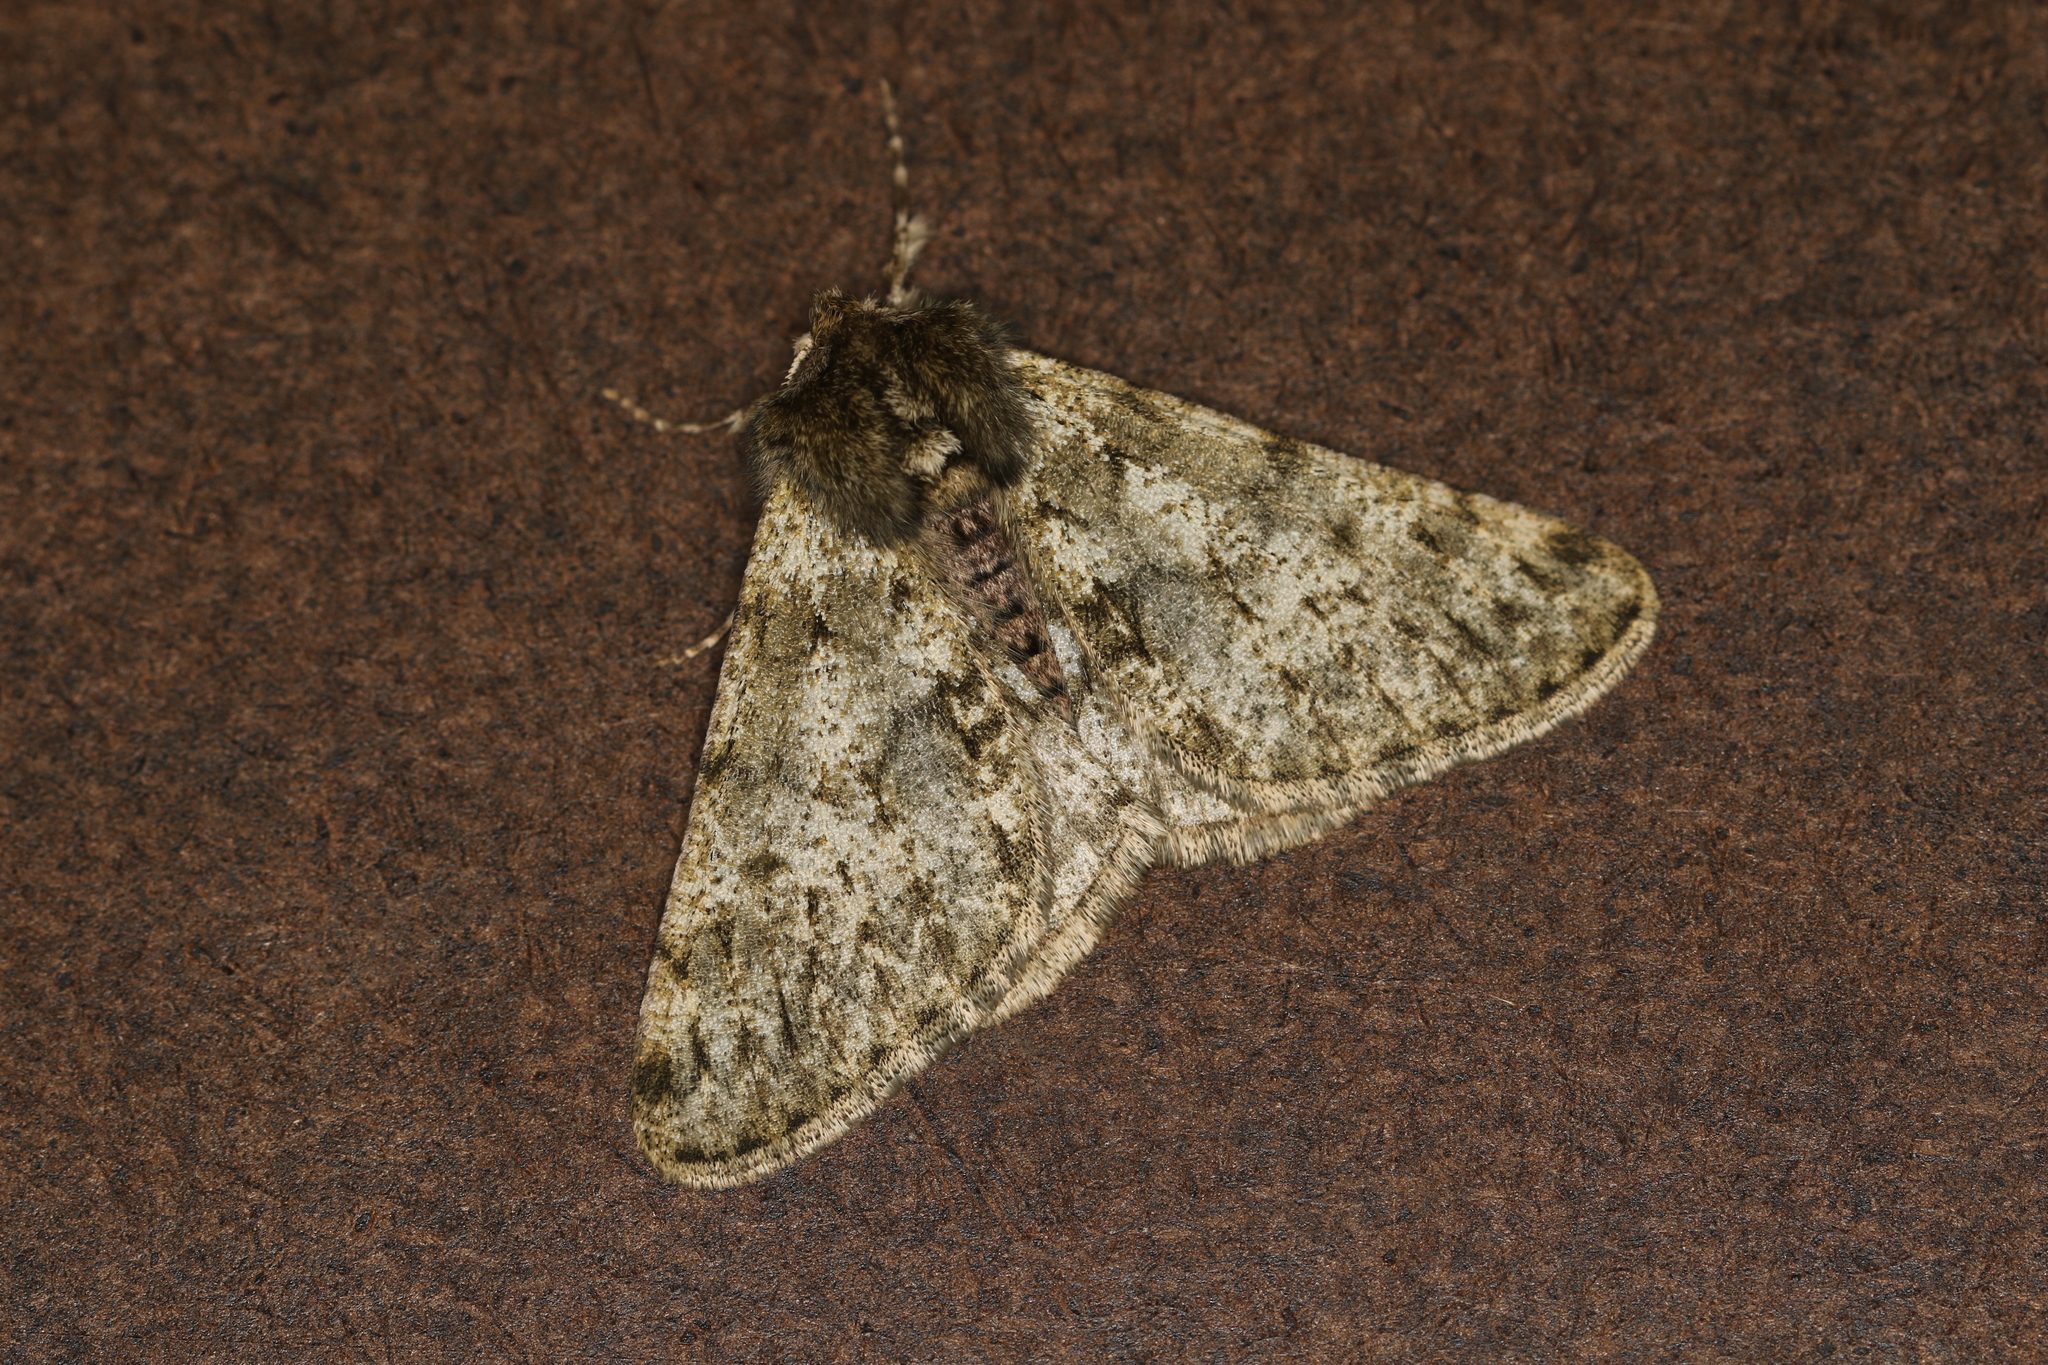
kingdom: Animalia
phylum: Arthropoda
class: Insecta
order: Lepidoptera
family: Geometridae
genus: Phigalia
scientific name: Phigalia pilosaria
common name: Pale brindled beauty
